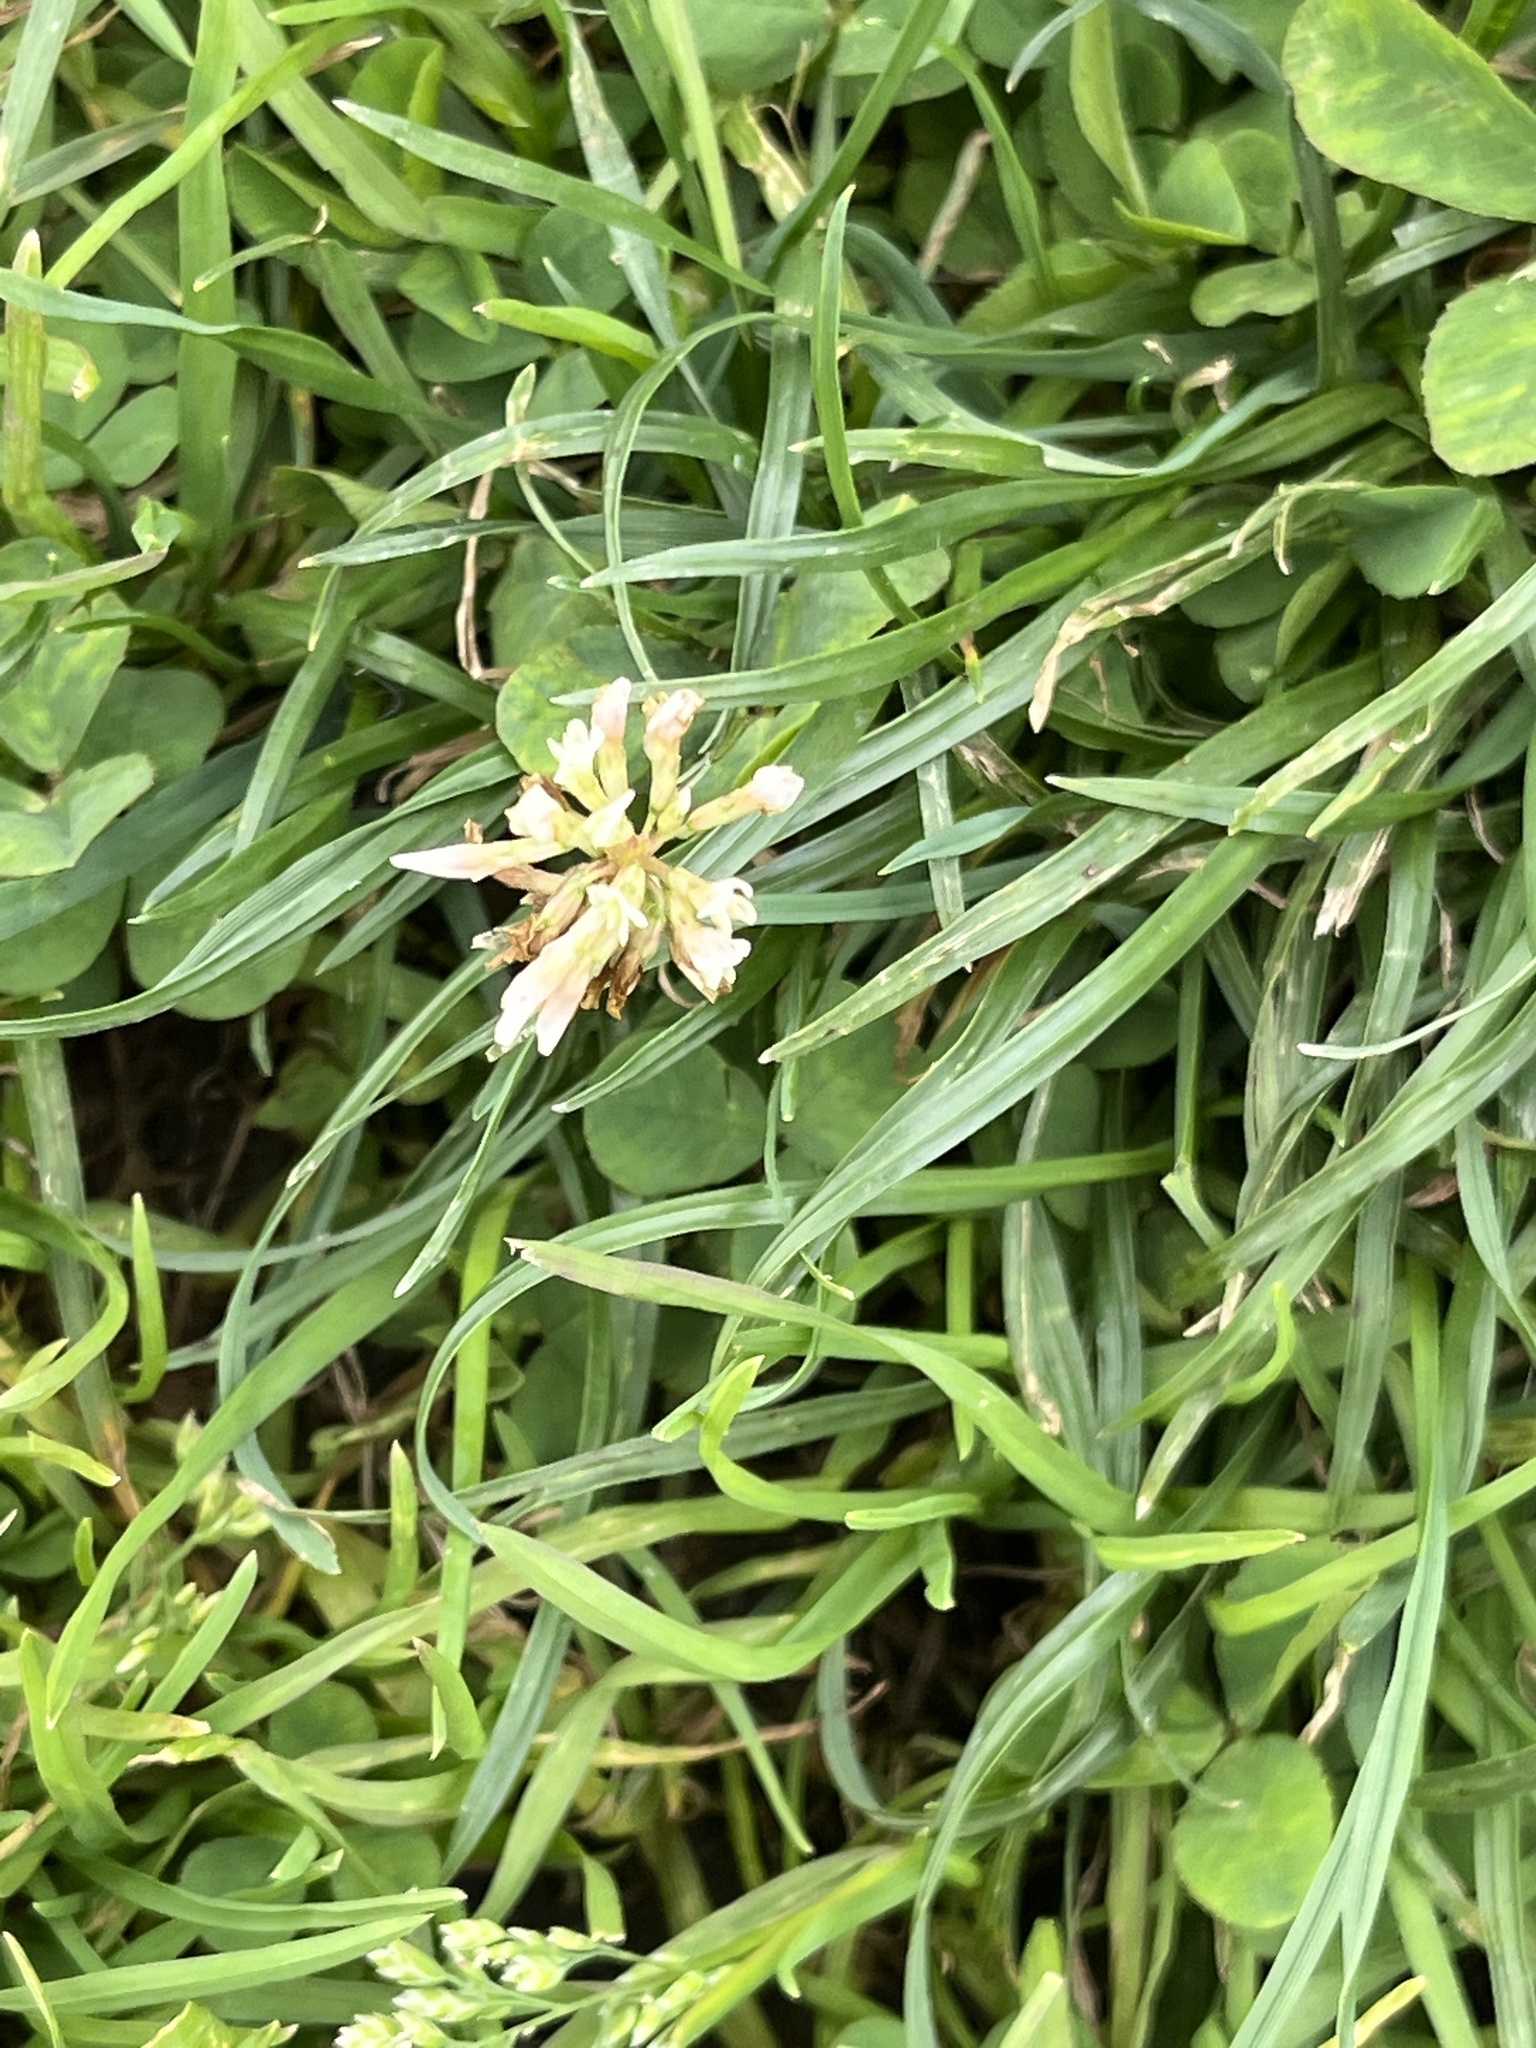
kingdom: Plantae
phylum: Tracheophyta
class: Magnoliopsida
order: Fabales
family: Fabaceae
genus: Trifolium
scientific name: Trifolium repens
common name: White clover
